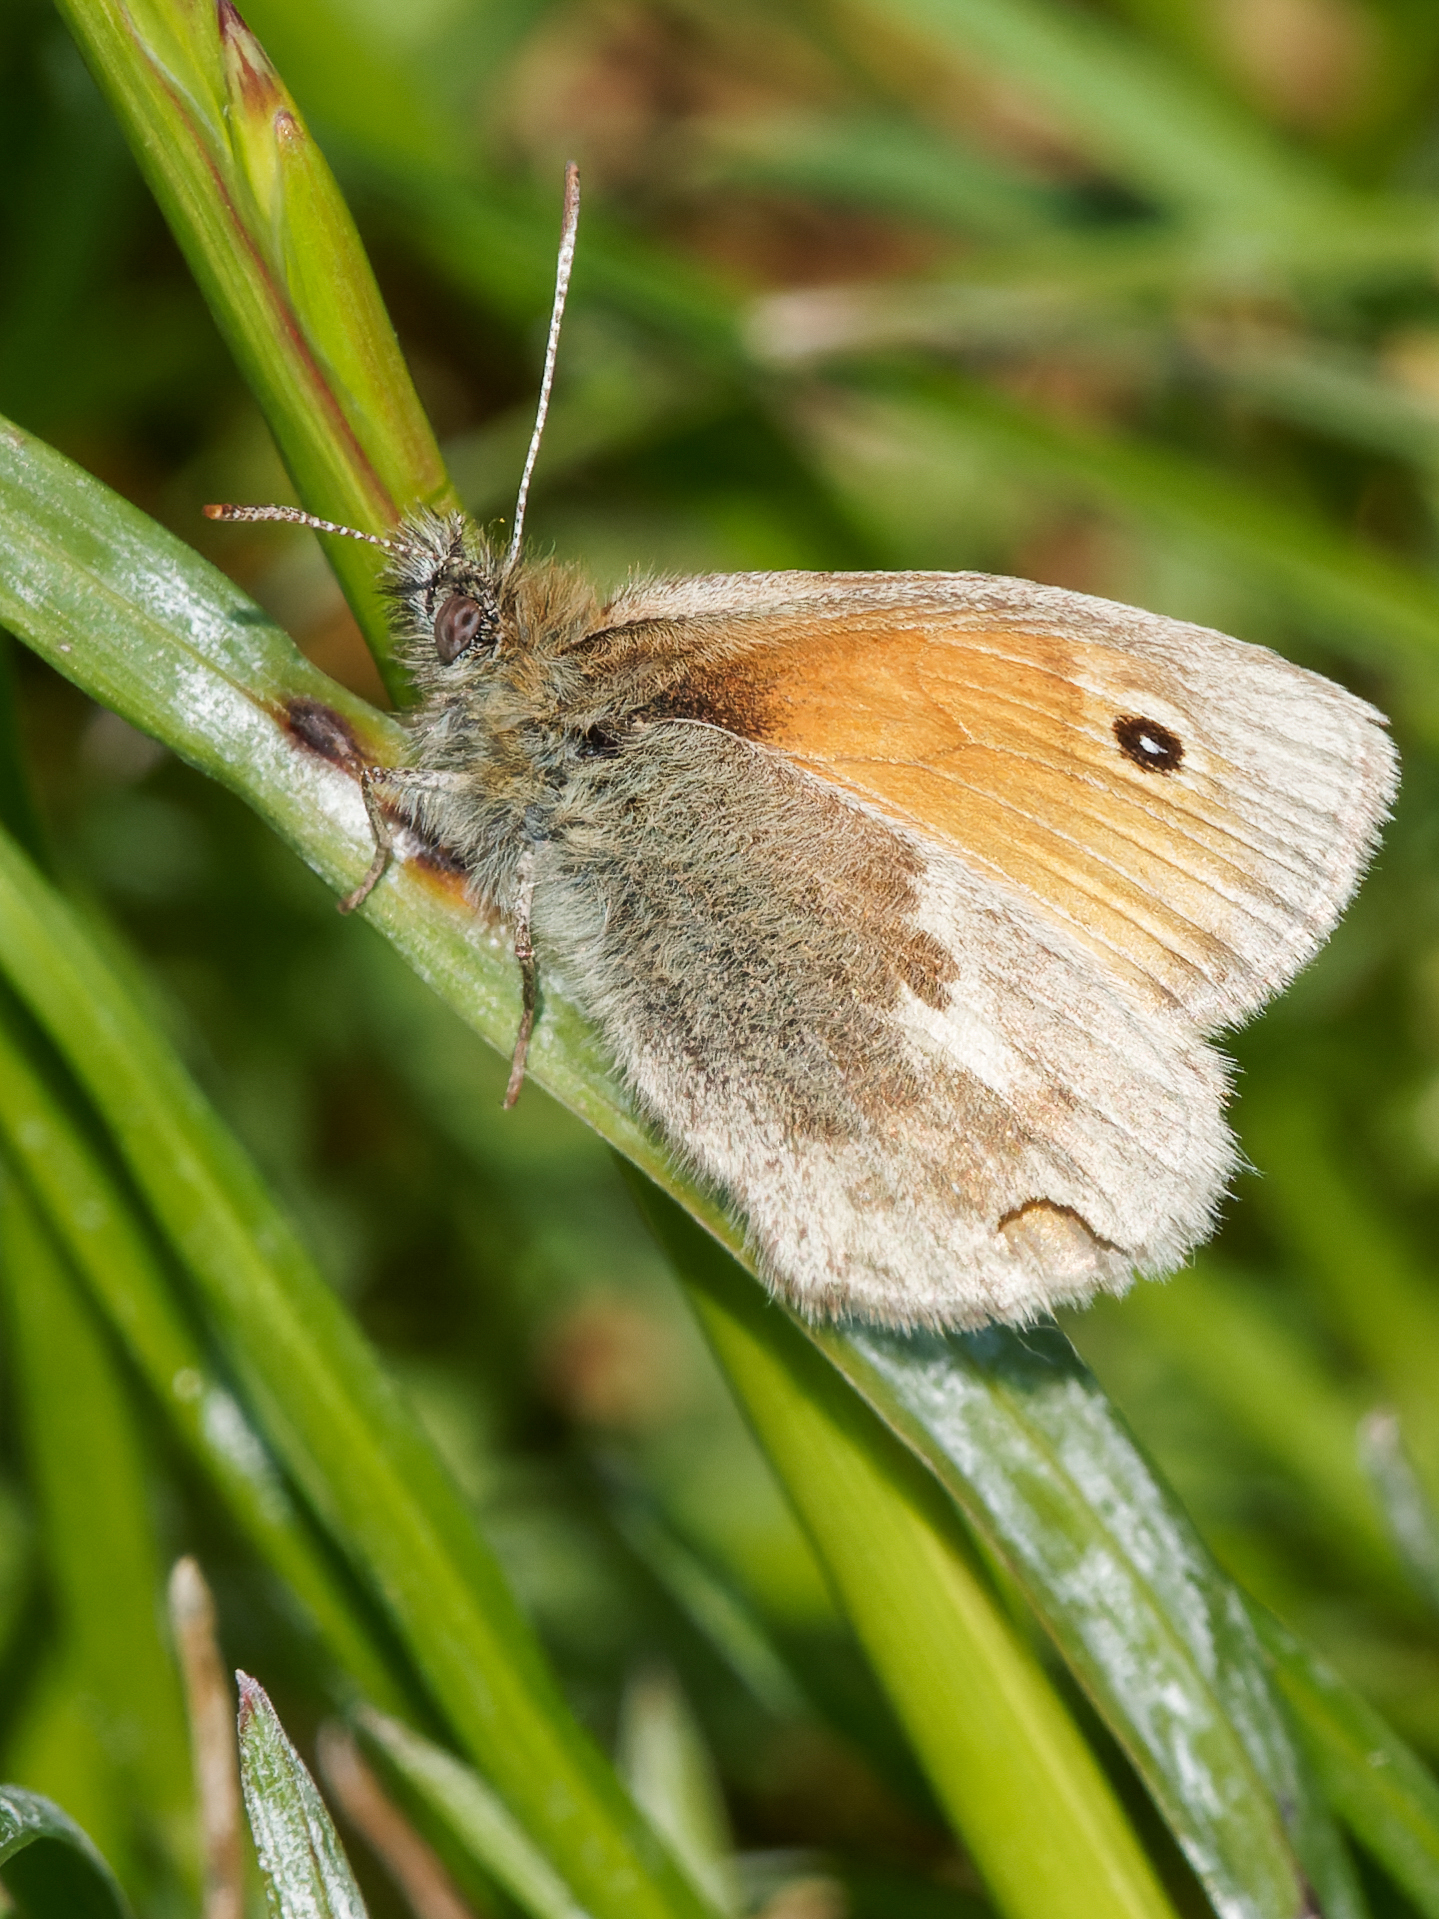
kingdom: Animalia
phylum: Arthropoda
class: Insecta
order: Lepidoptera
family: Nymphalidae
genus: Coenonympha
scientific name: Coenonympha pamphilus
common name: Small heath
